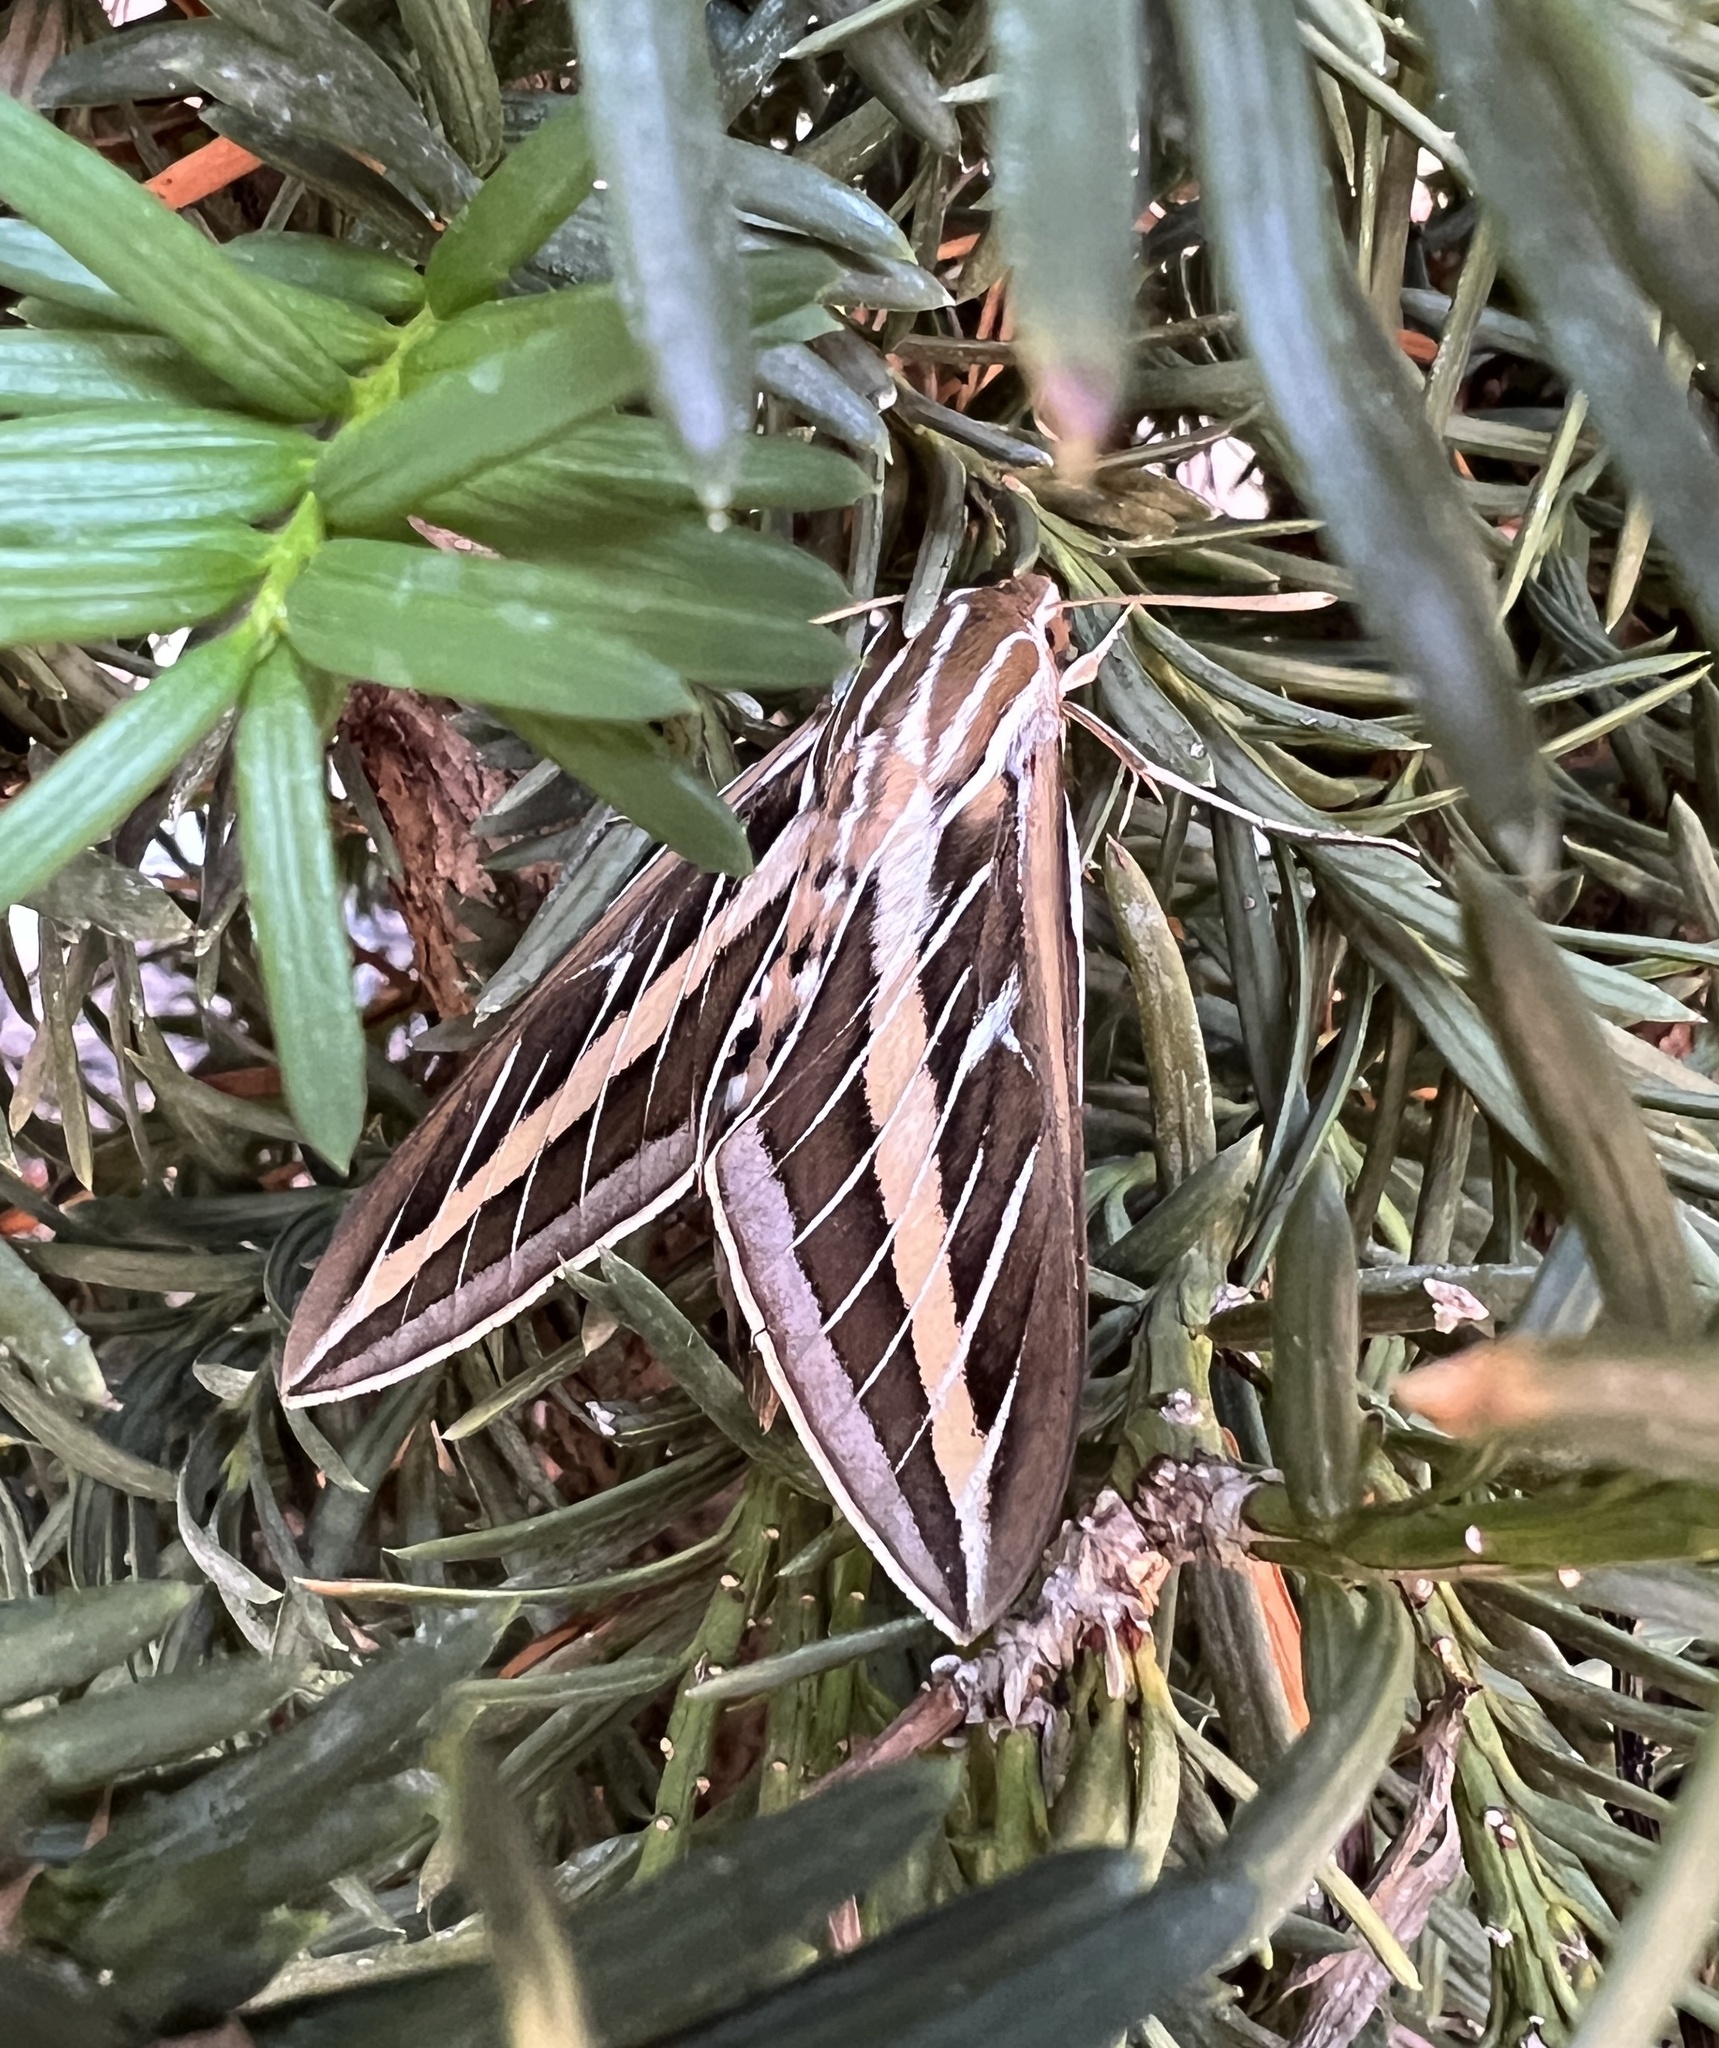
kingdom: Animalia
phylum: Arthropoda
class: Insecta
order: Lepidoptera
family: Sphingidae
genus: Hyles
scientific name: Hyles lineata
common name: White-lined sphinx
